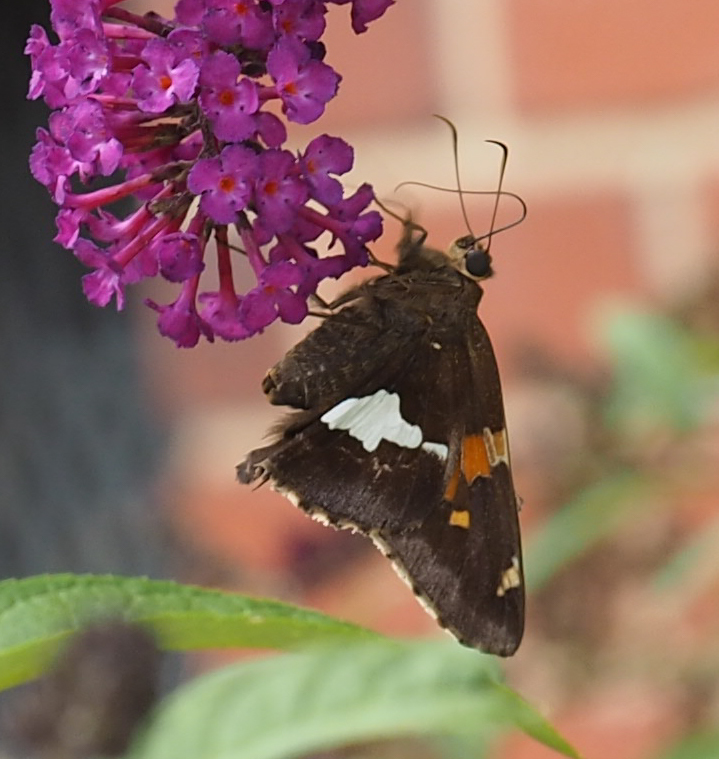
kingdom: Animalia
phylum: Arthropoda
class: Insecta
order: Lepidoptera
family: Hesperiidae
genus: Epargyreus
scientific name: Epargyreus clarus
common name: Silver-spotted skipper
